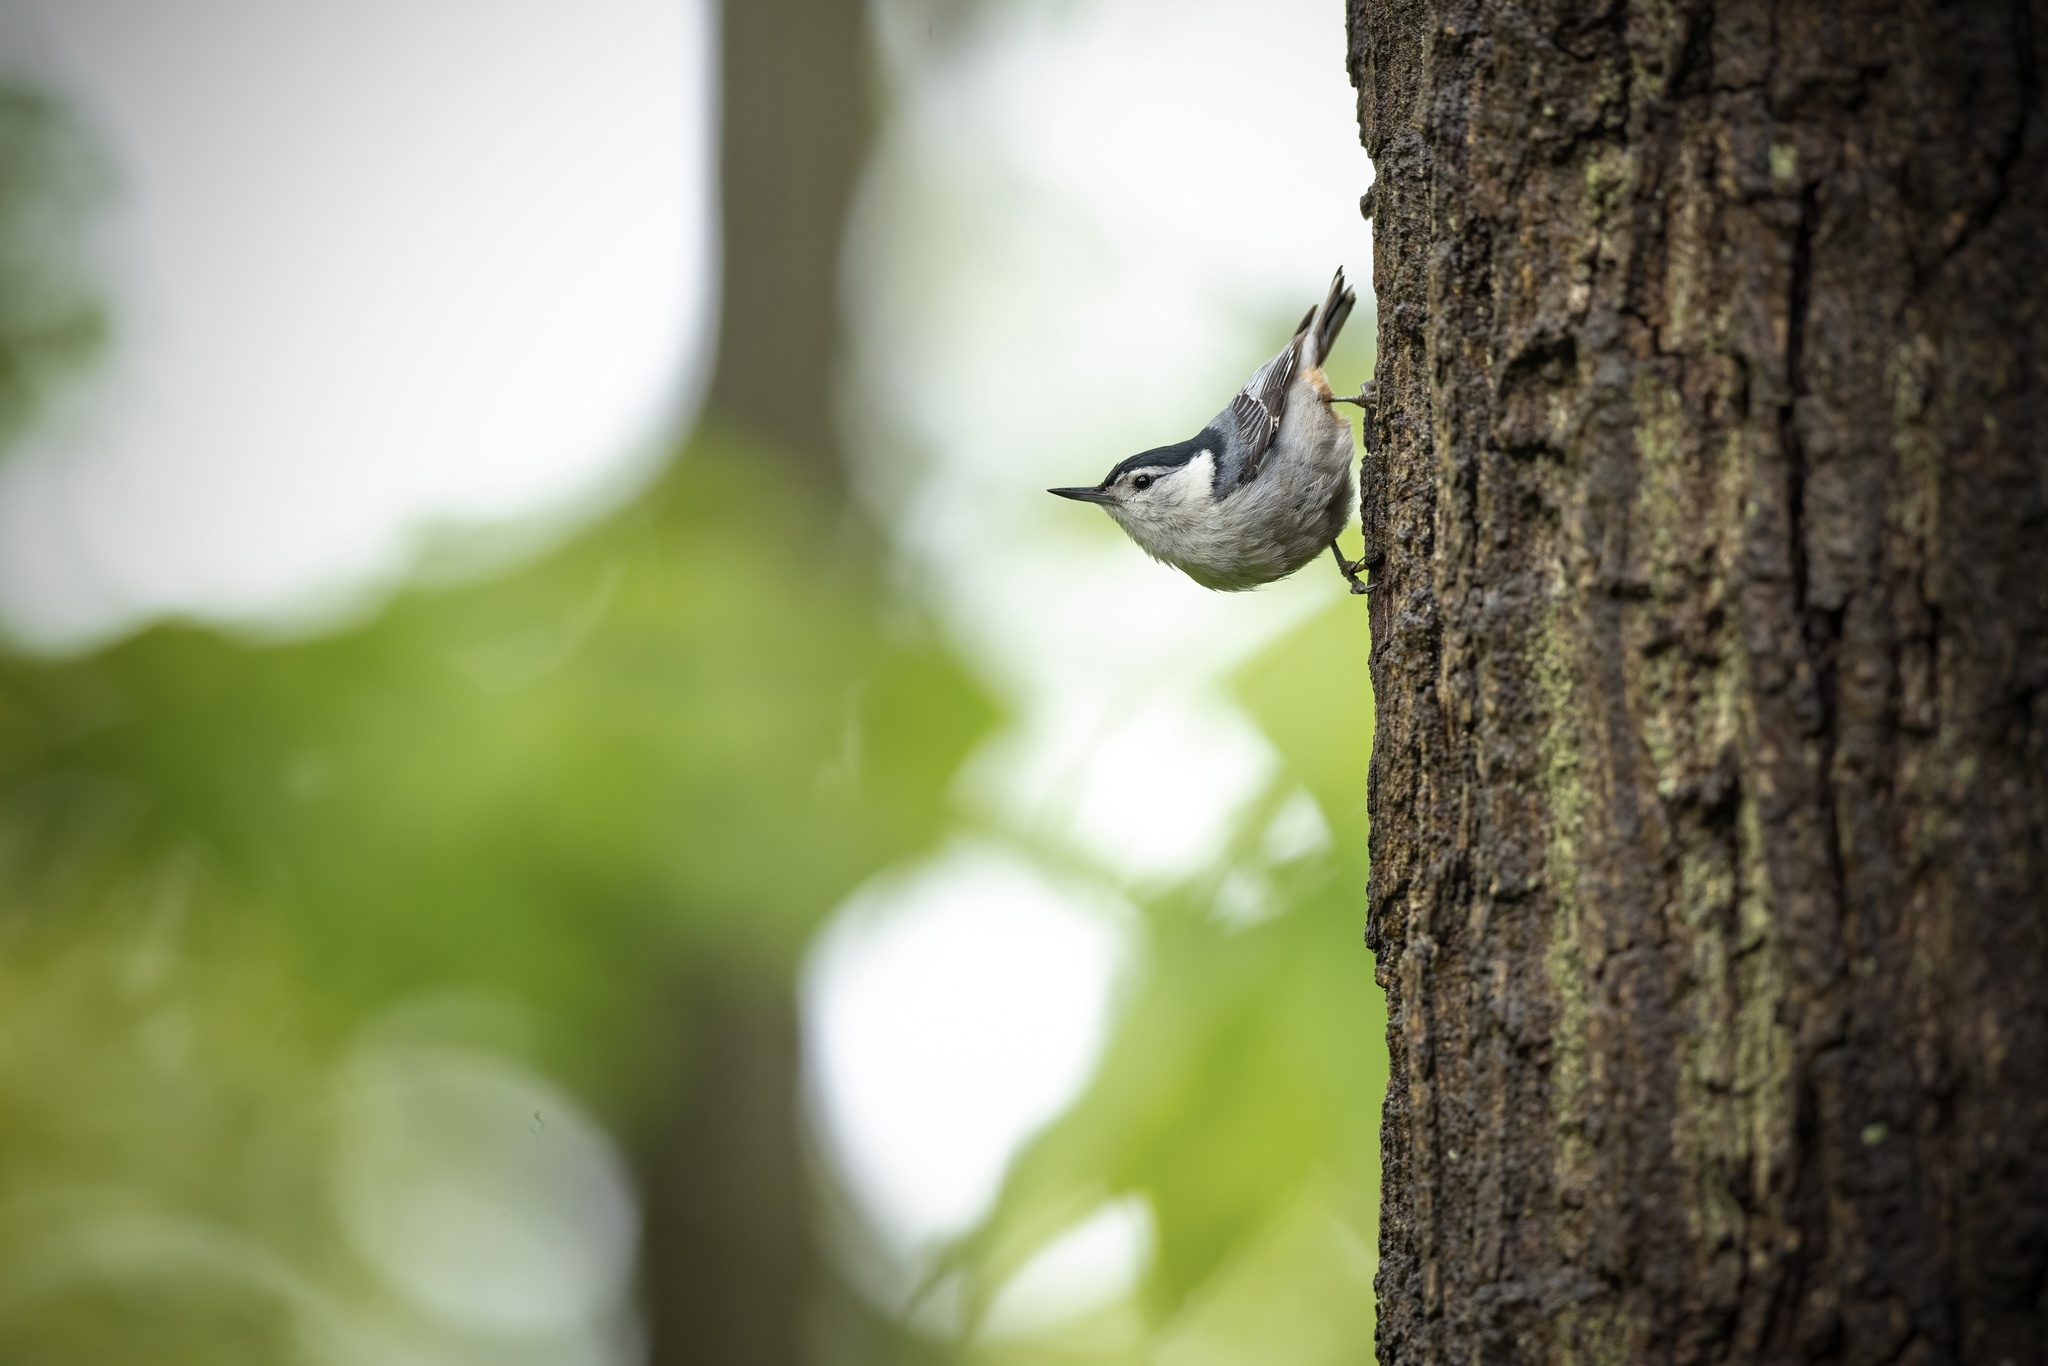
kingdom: Animalia
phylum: Chordata
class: Aves
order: Passeriformes
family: Sittidae
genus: Sitta
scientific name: Sitta carolinensis
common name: White-breasted nuthatch
